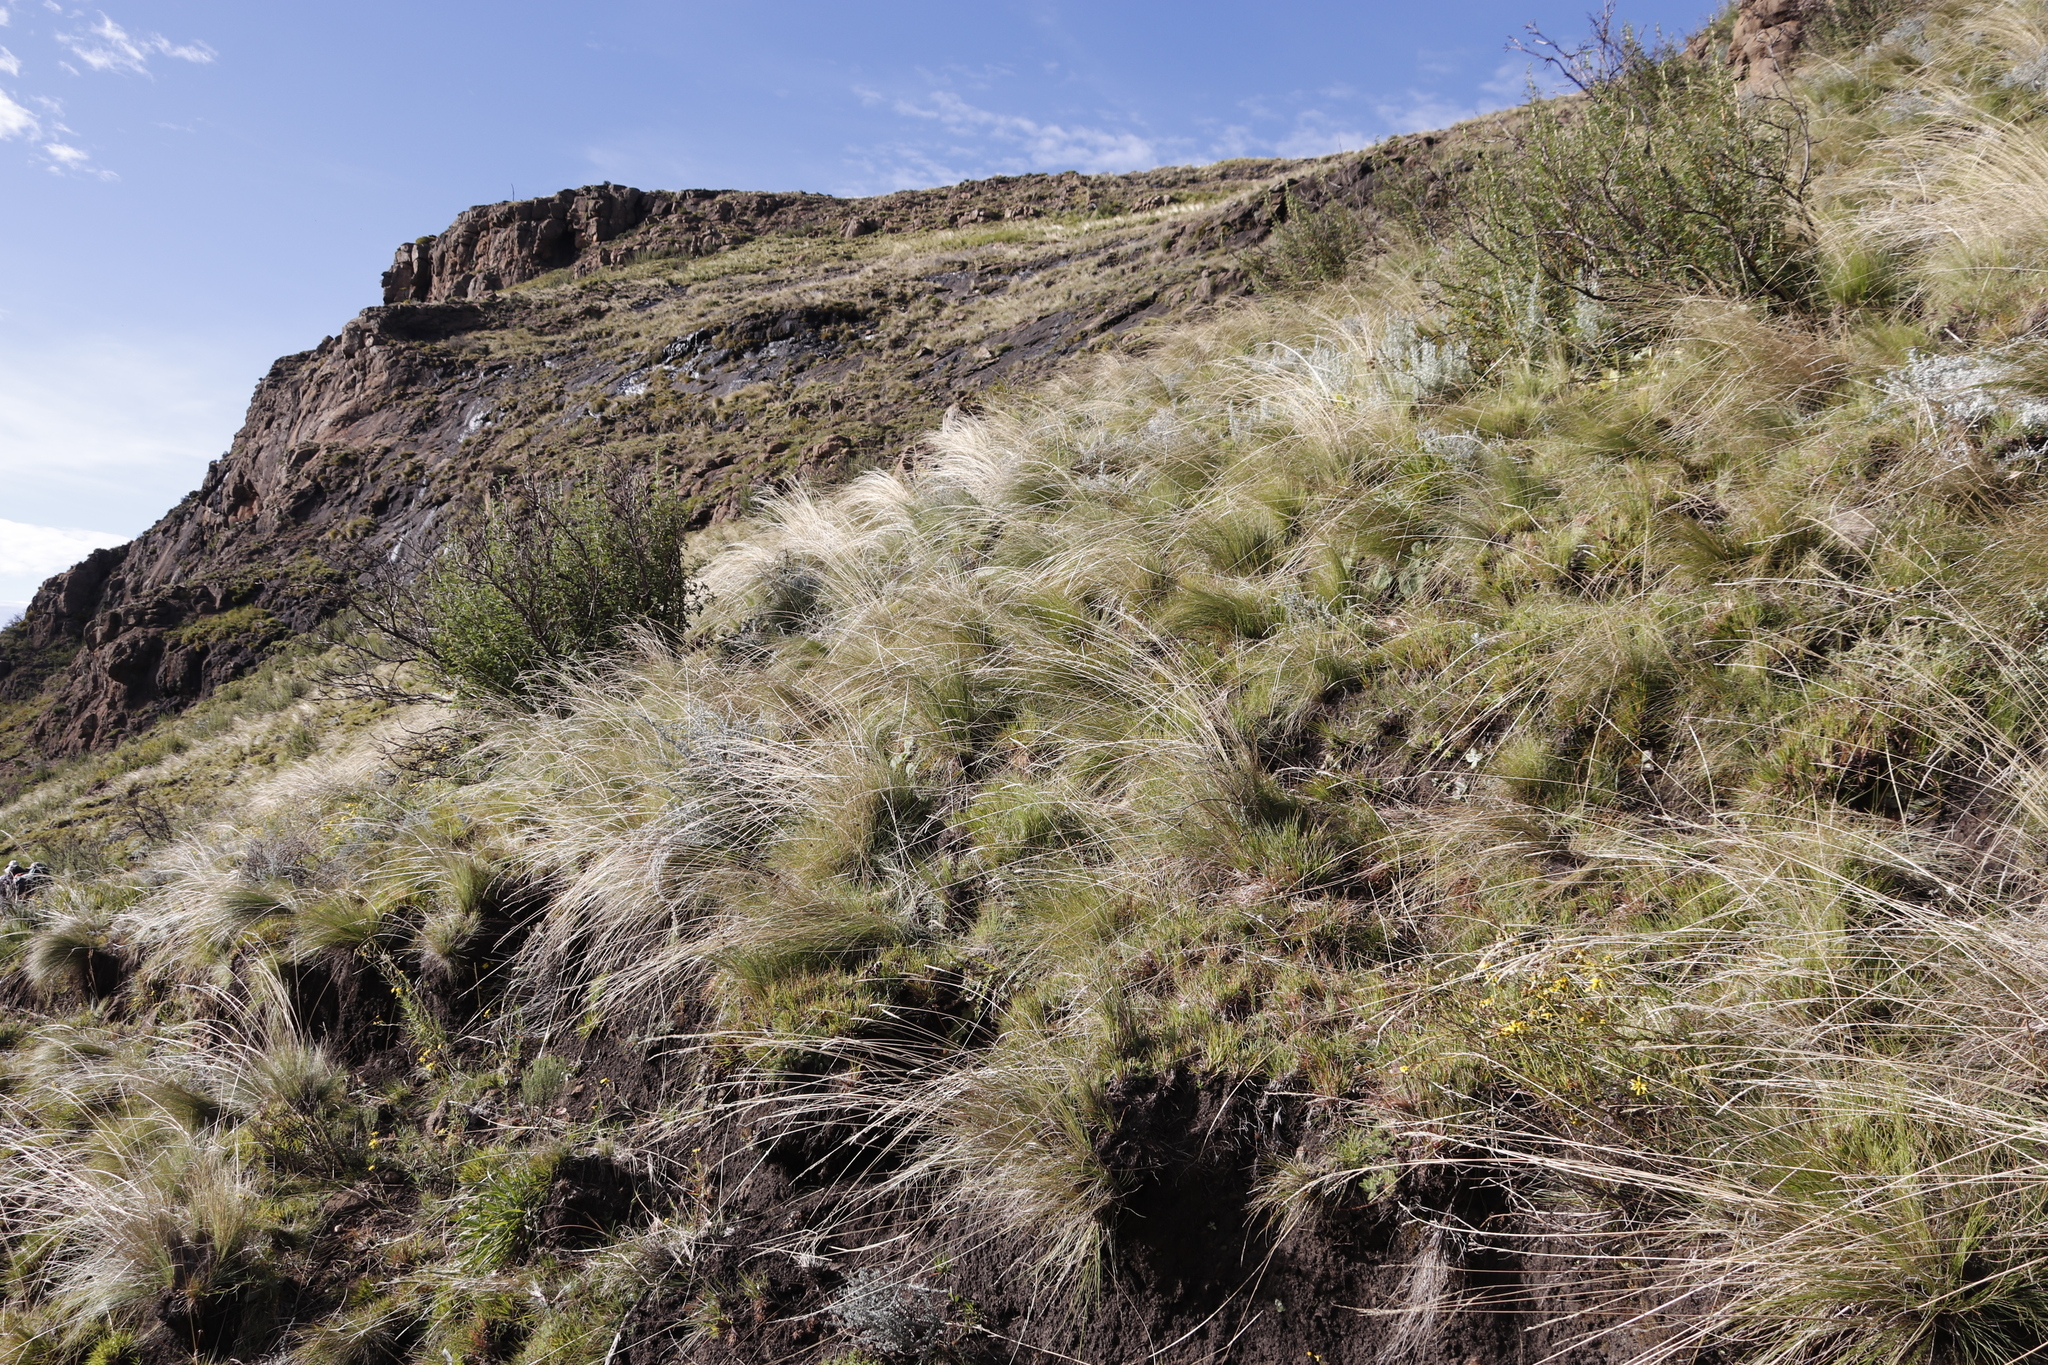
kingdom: Plantae
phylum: Tracheophyta
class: Magnoliopsida
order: Rosales
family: Rosaceae
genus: Leucosidea
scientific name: Leucosidea sericea
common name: Oldwood
